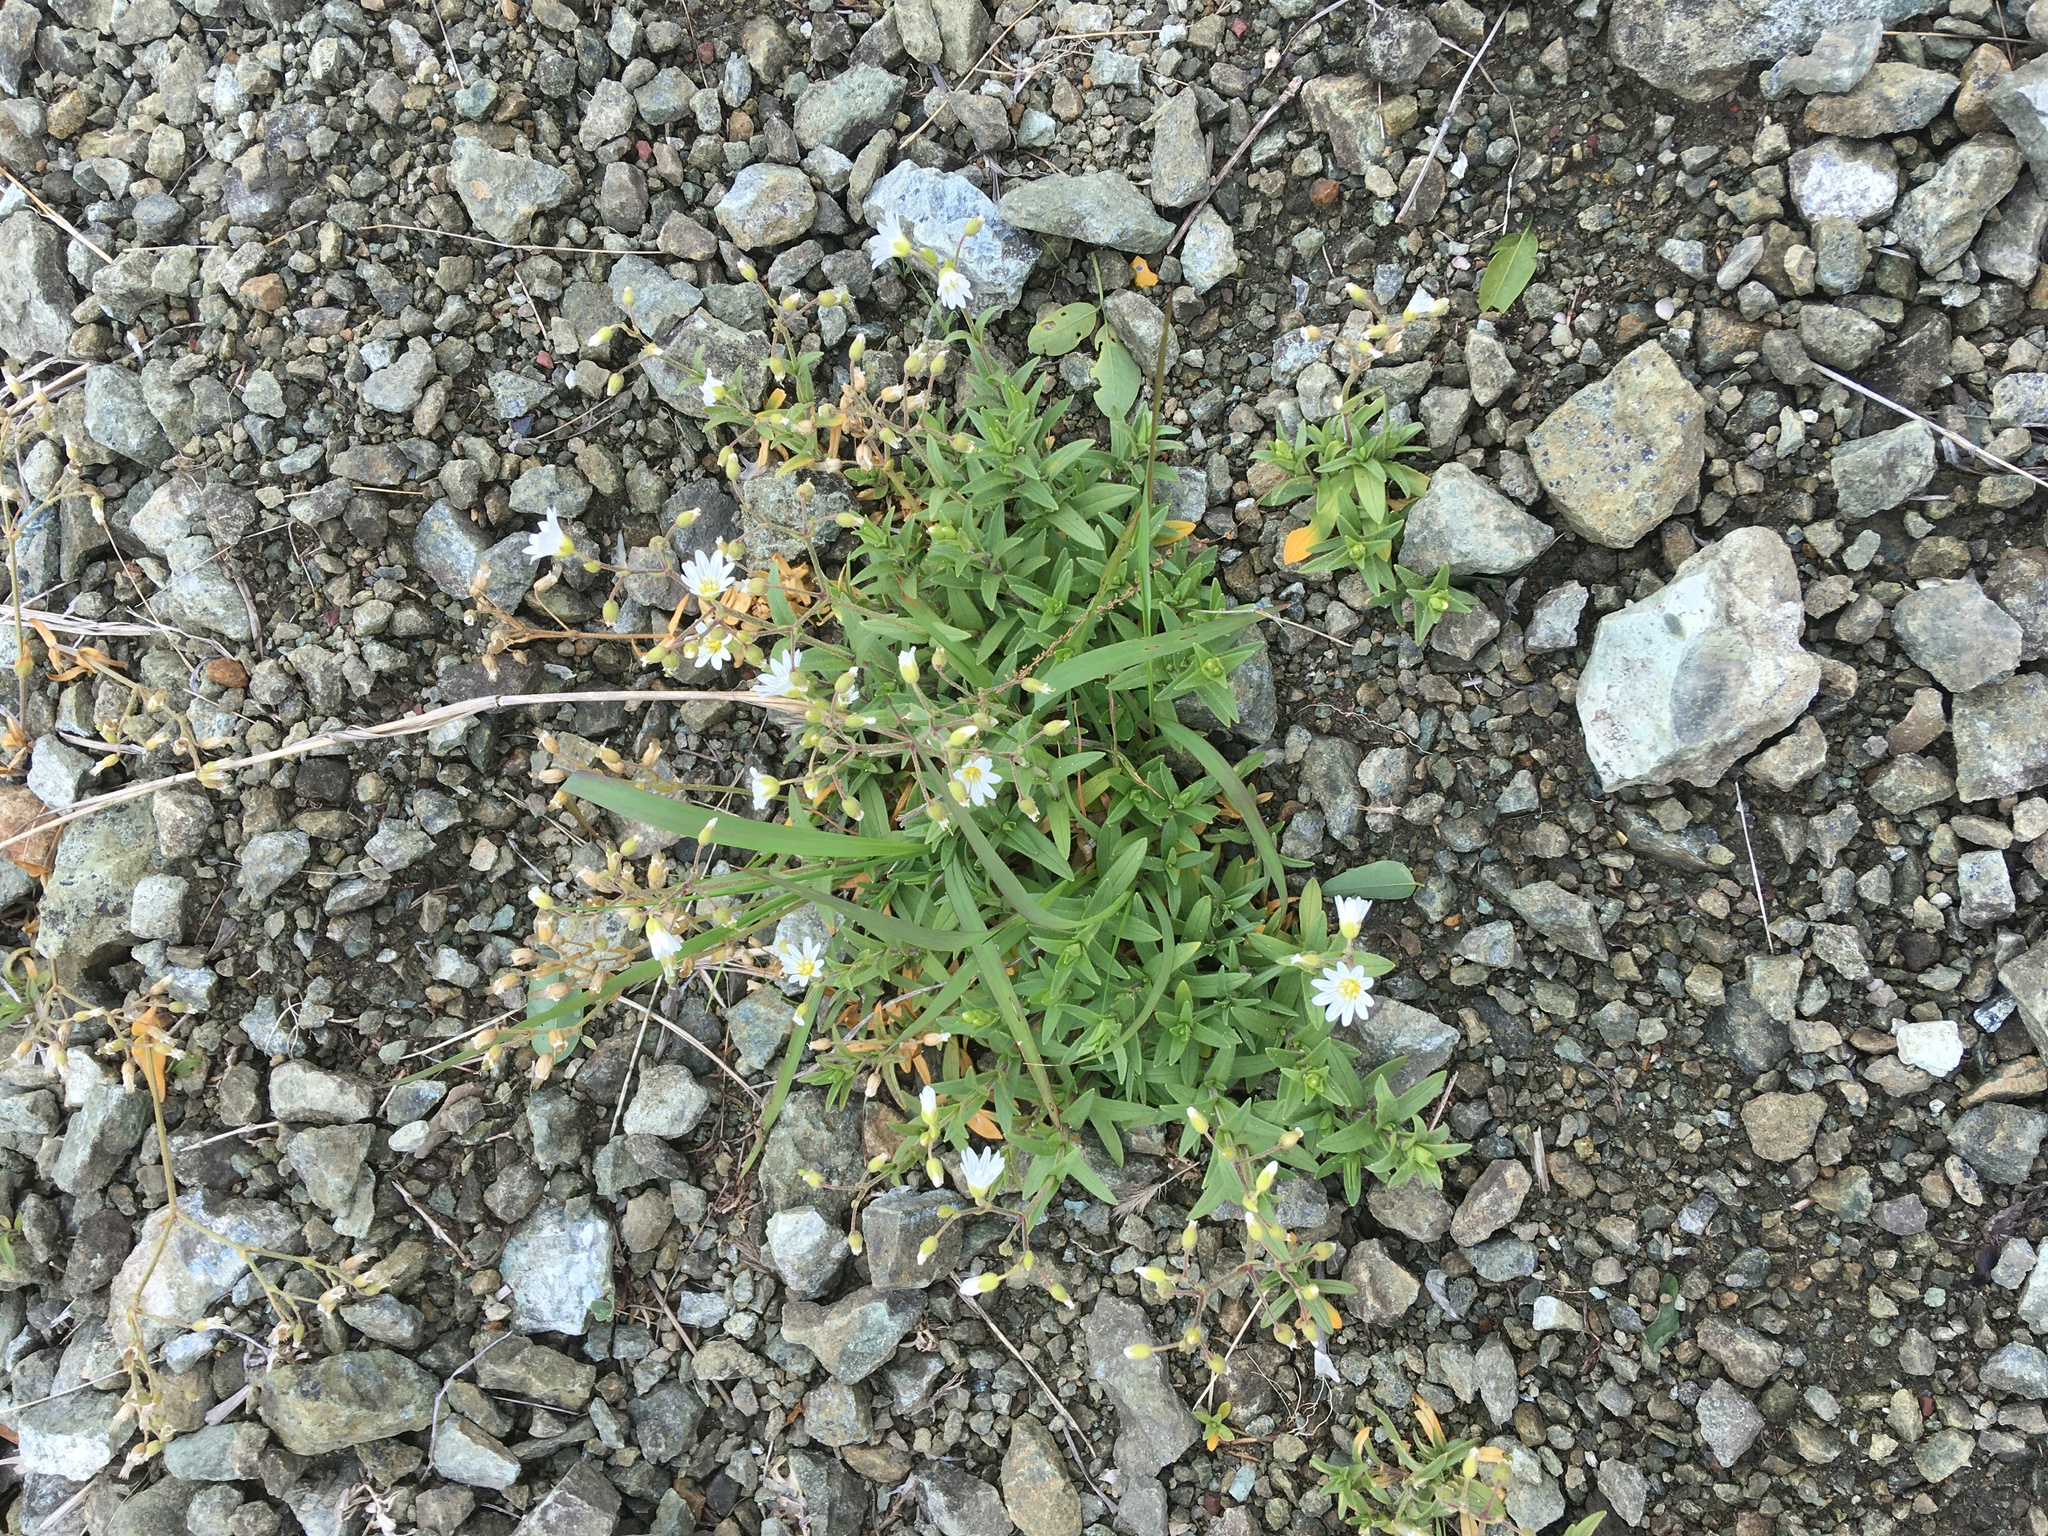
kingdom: Plantae
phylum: Tracheophyta
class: Magnoliopsida
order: Caryophyllales
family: Caryophyllaceae
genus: Cerastium
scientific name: Cerastium arvense
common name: Field mouse-ear
